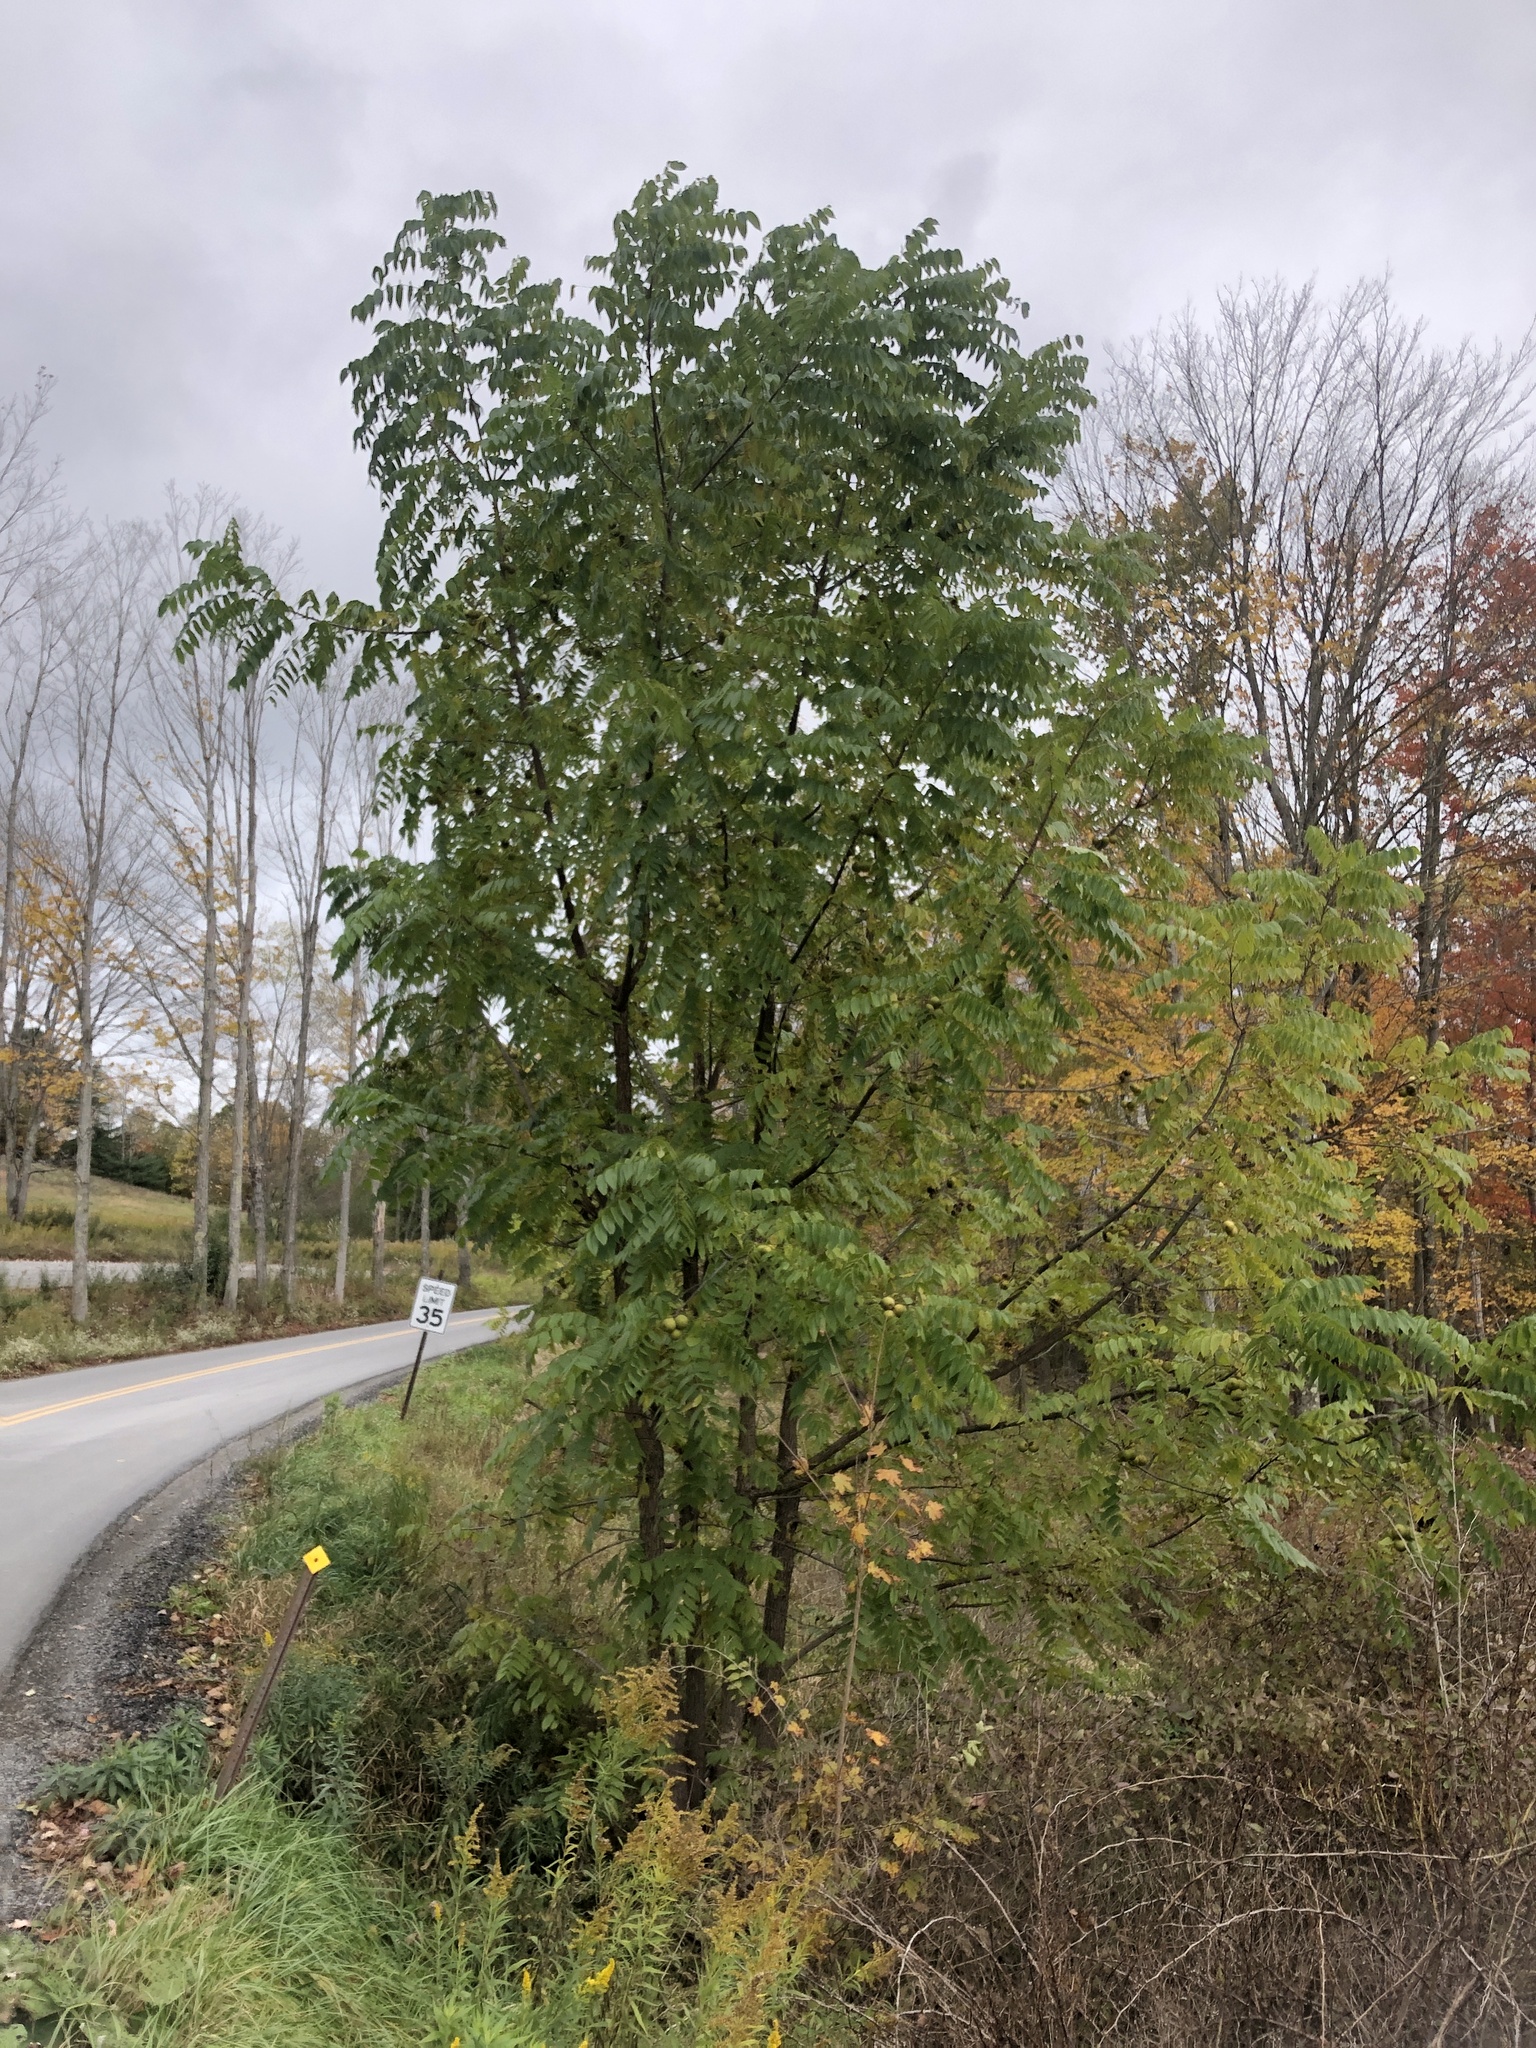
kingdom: Plantae
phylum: Tracheophyta
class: Magnoliopsida
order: Fagales
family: Juglandaceae
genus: Juglans
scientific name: Juglans nigra
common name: Black walnut
